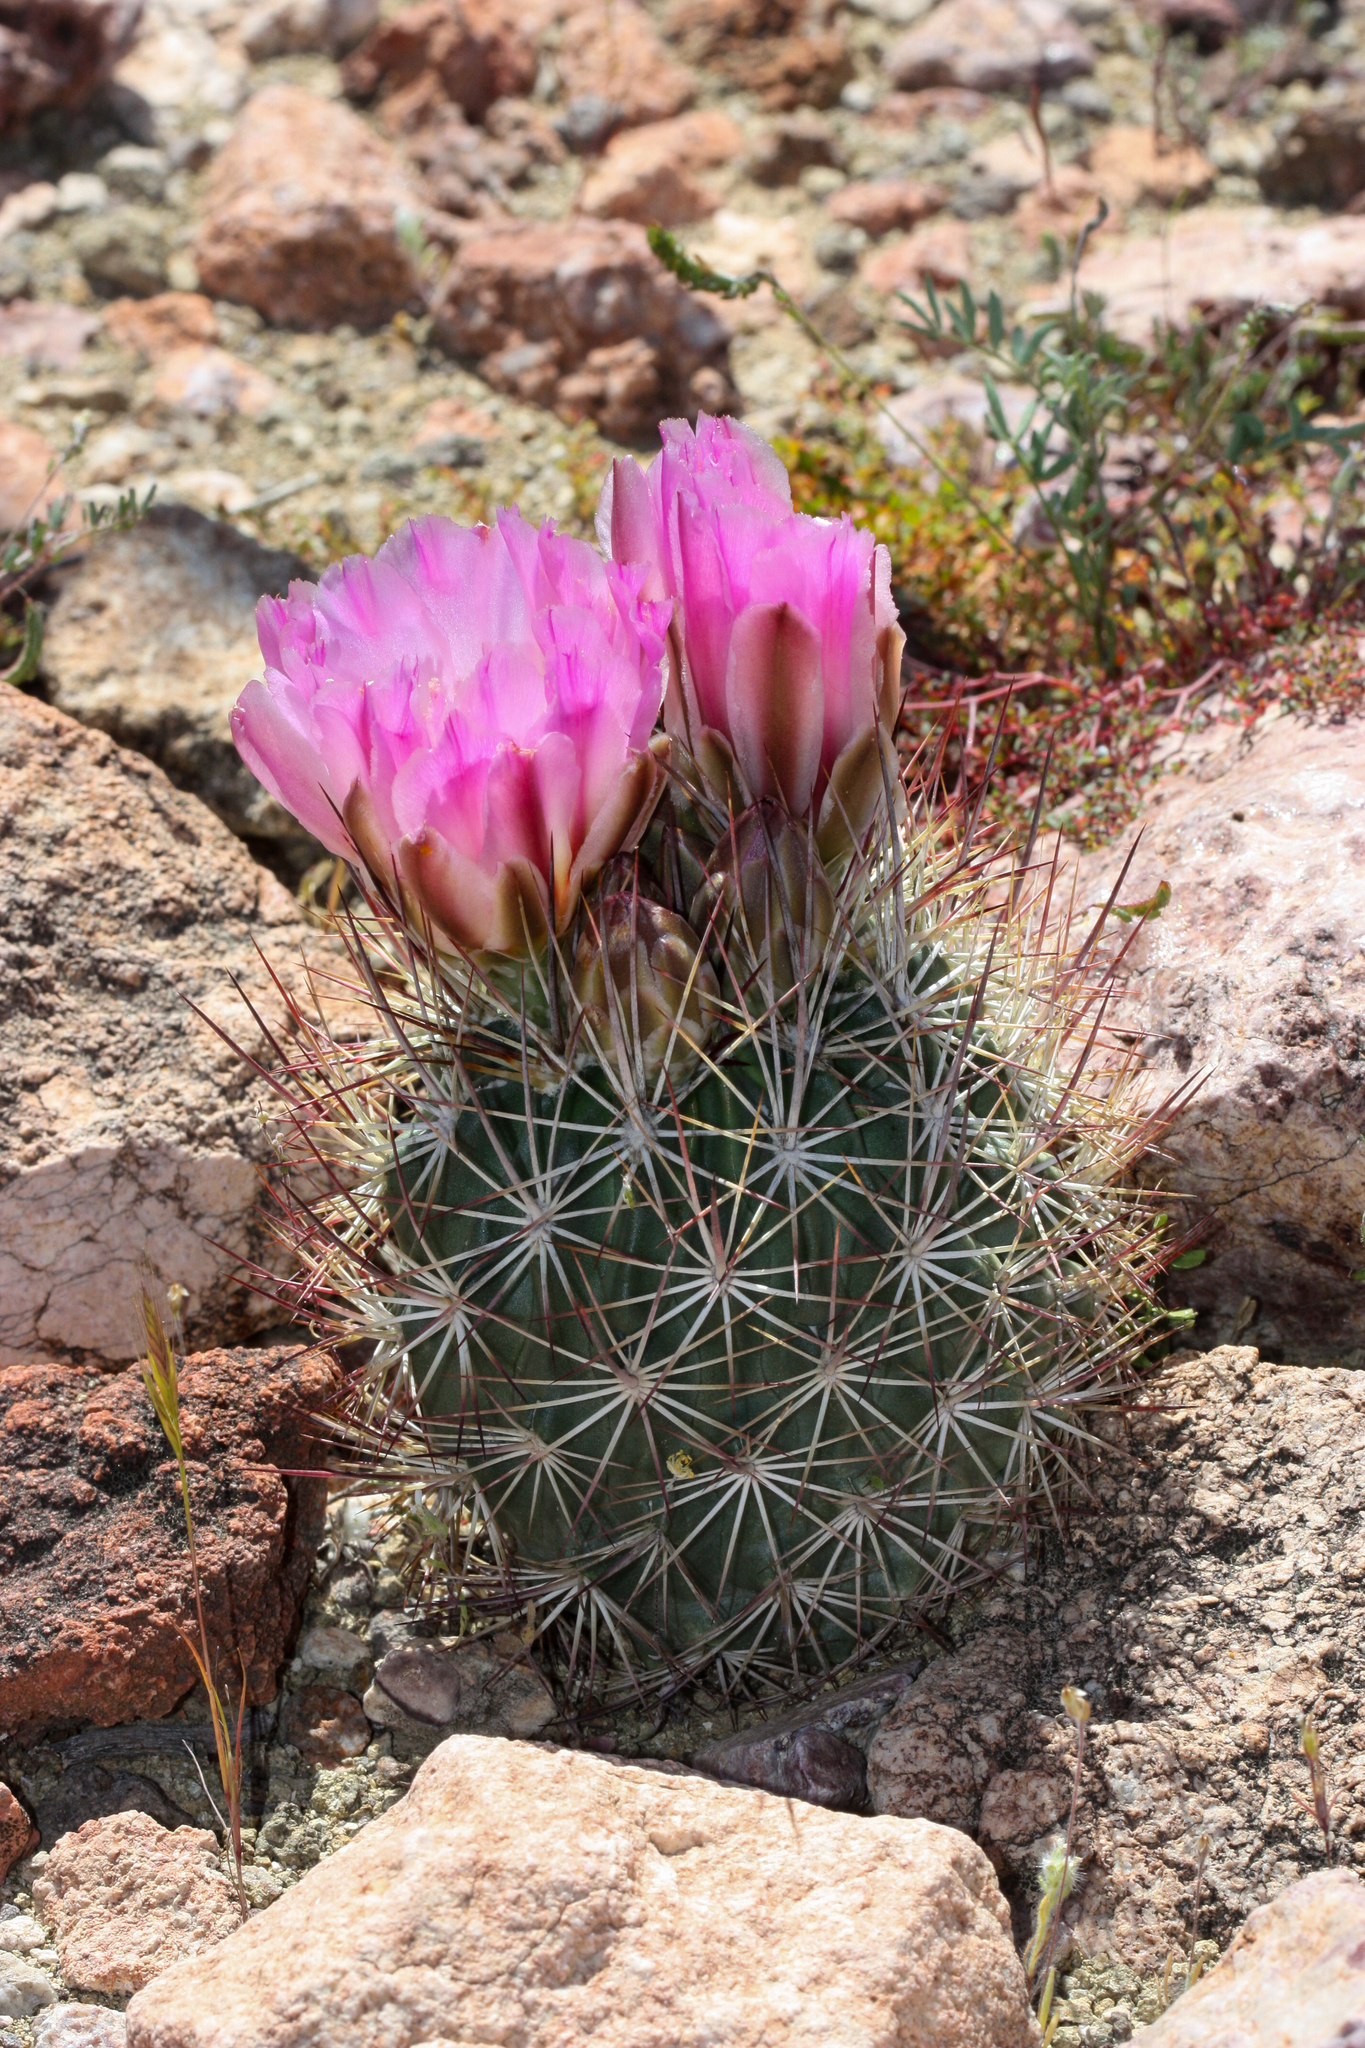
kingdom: Plantae
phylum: Tracheophyta
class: Magnoliopsida
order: Caryophyllales
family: Cactaceae
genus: Sclerocactus
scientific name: Sclerocactus johnsonii
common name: Eight-spine fishhook cactus
